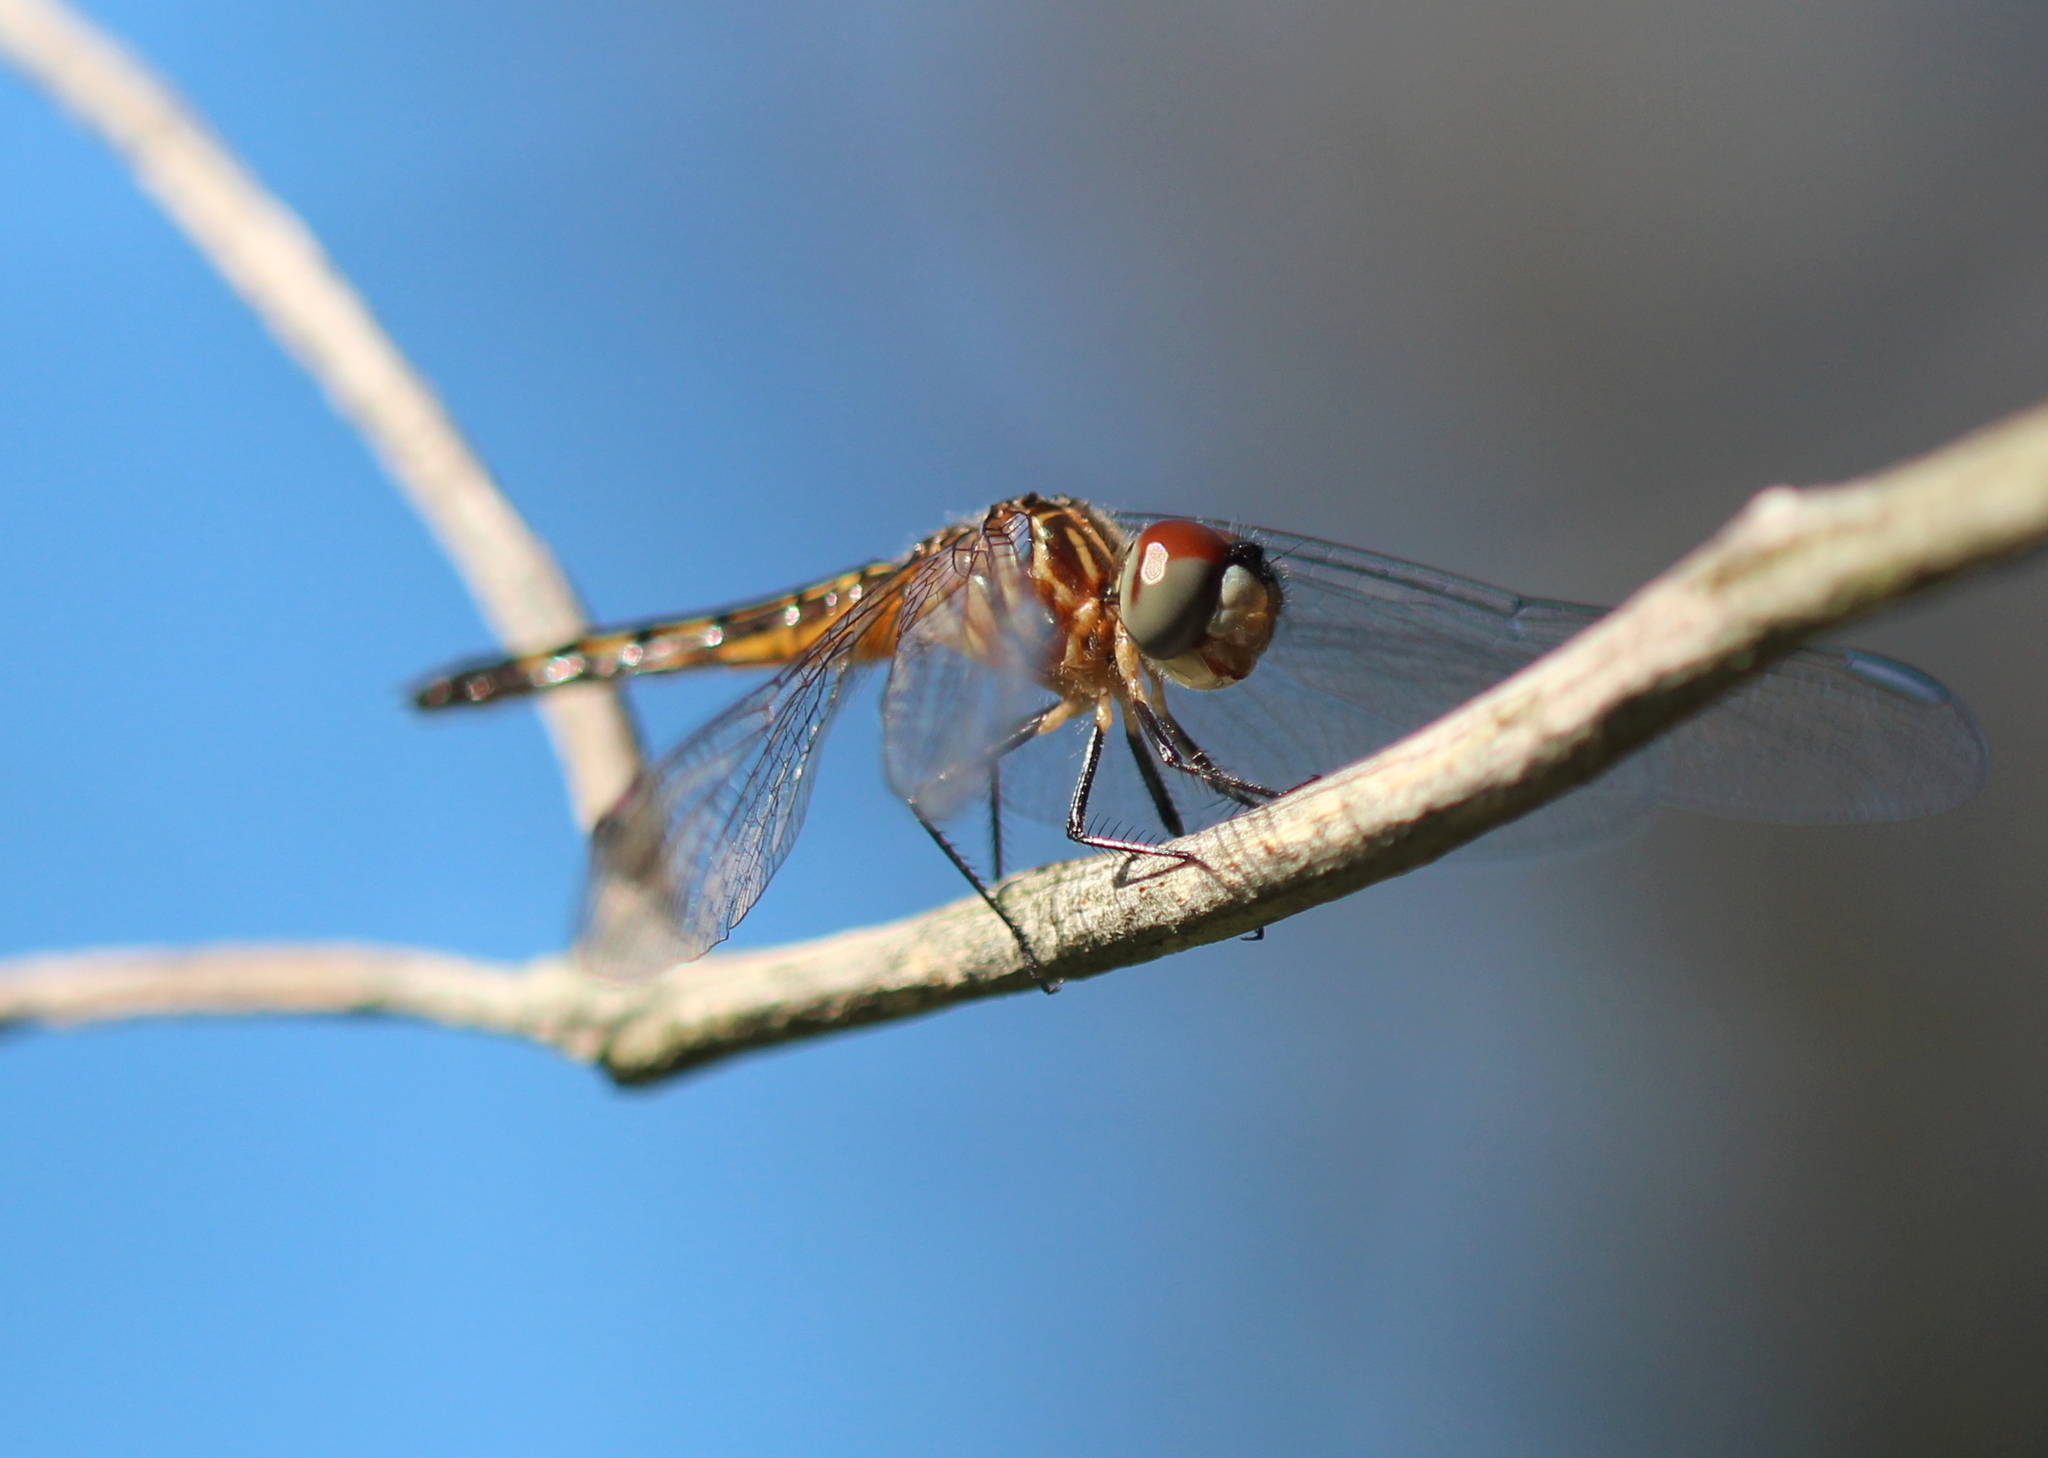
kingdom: Animalia
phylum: Arthropoda
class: Insecta
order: Odonata
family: Libellulidae
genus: Pachydiplax
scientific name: Pachydiplax longipennis
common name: Blue dasher
